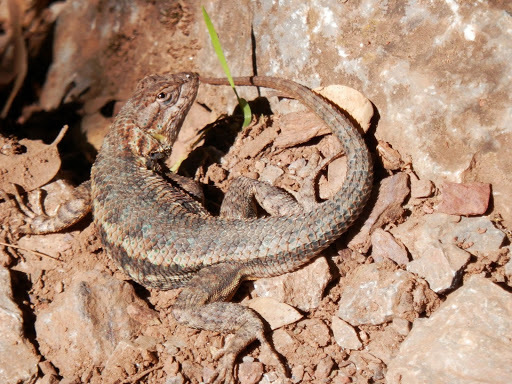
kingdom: Animalia
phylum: Chordata
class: Squamata
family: Phrynosomatidae
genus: Sceloporus
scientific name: Sceloporus occidentalis
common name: Western fence lizard
